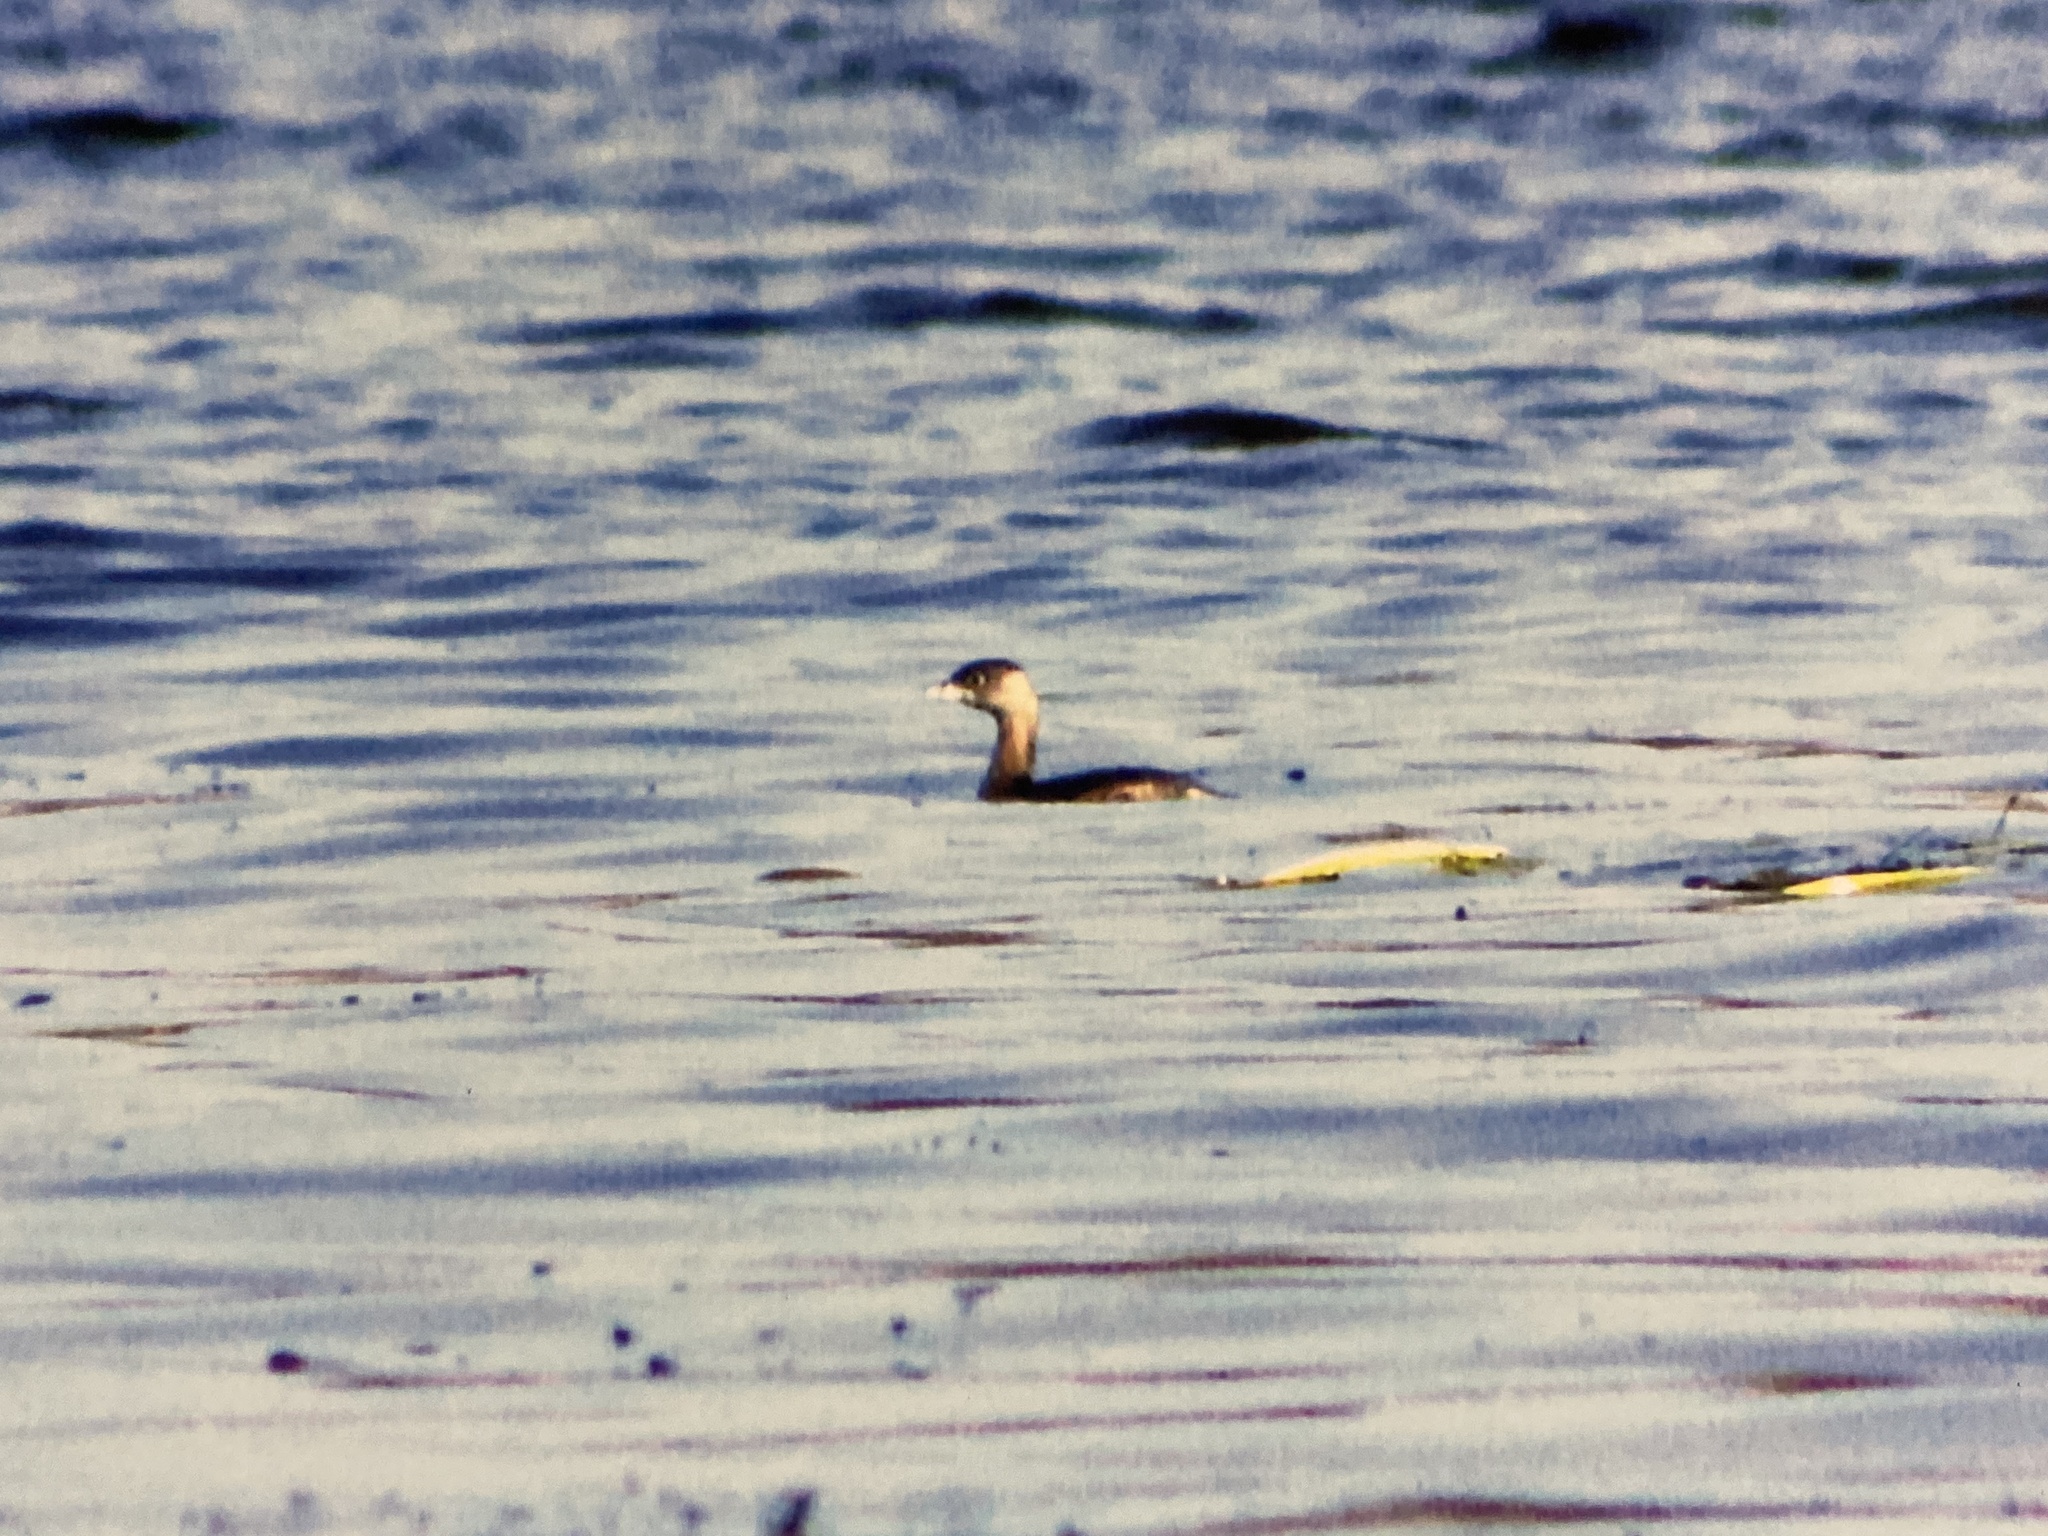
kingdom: Animalia
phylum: Chordata
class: Aves
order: Podicipediformes
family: Podicipedidae
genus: Podilymbus
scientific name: Podilymbus podiceps
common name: Pied-billed grebe
